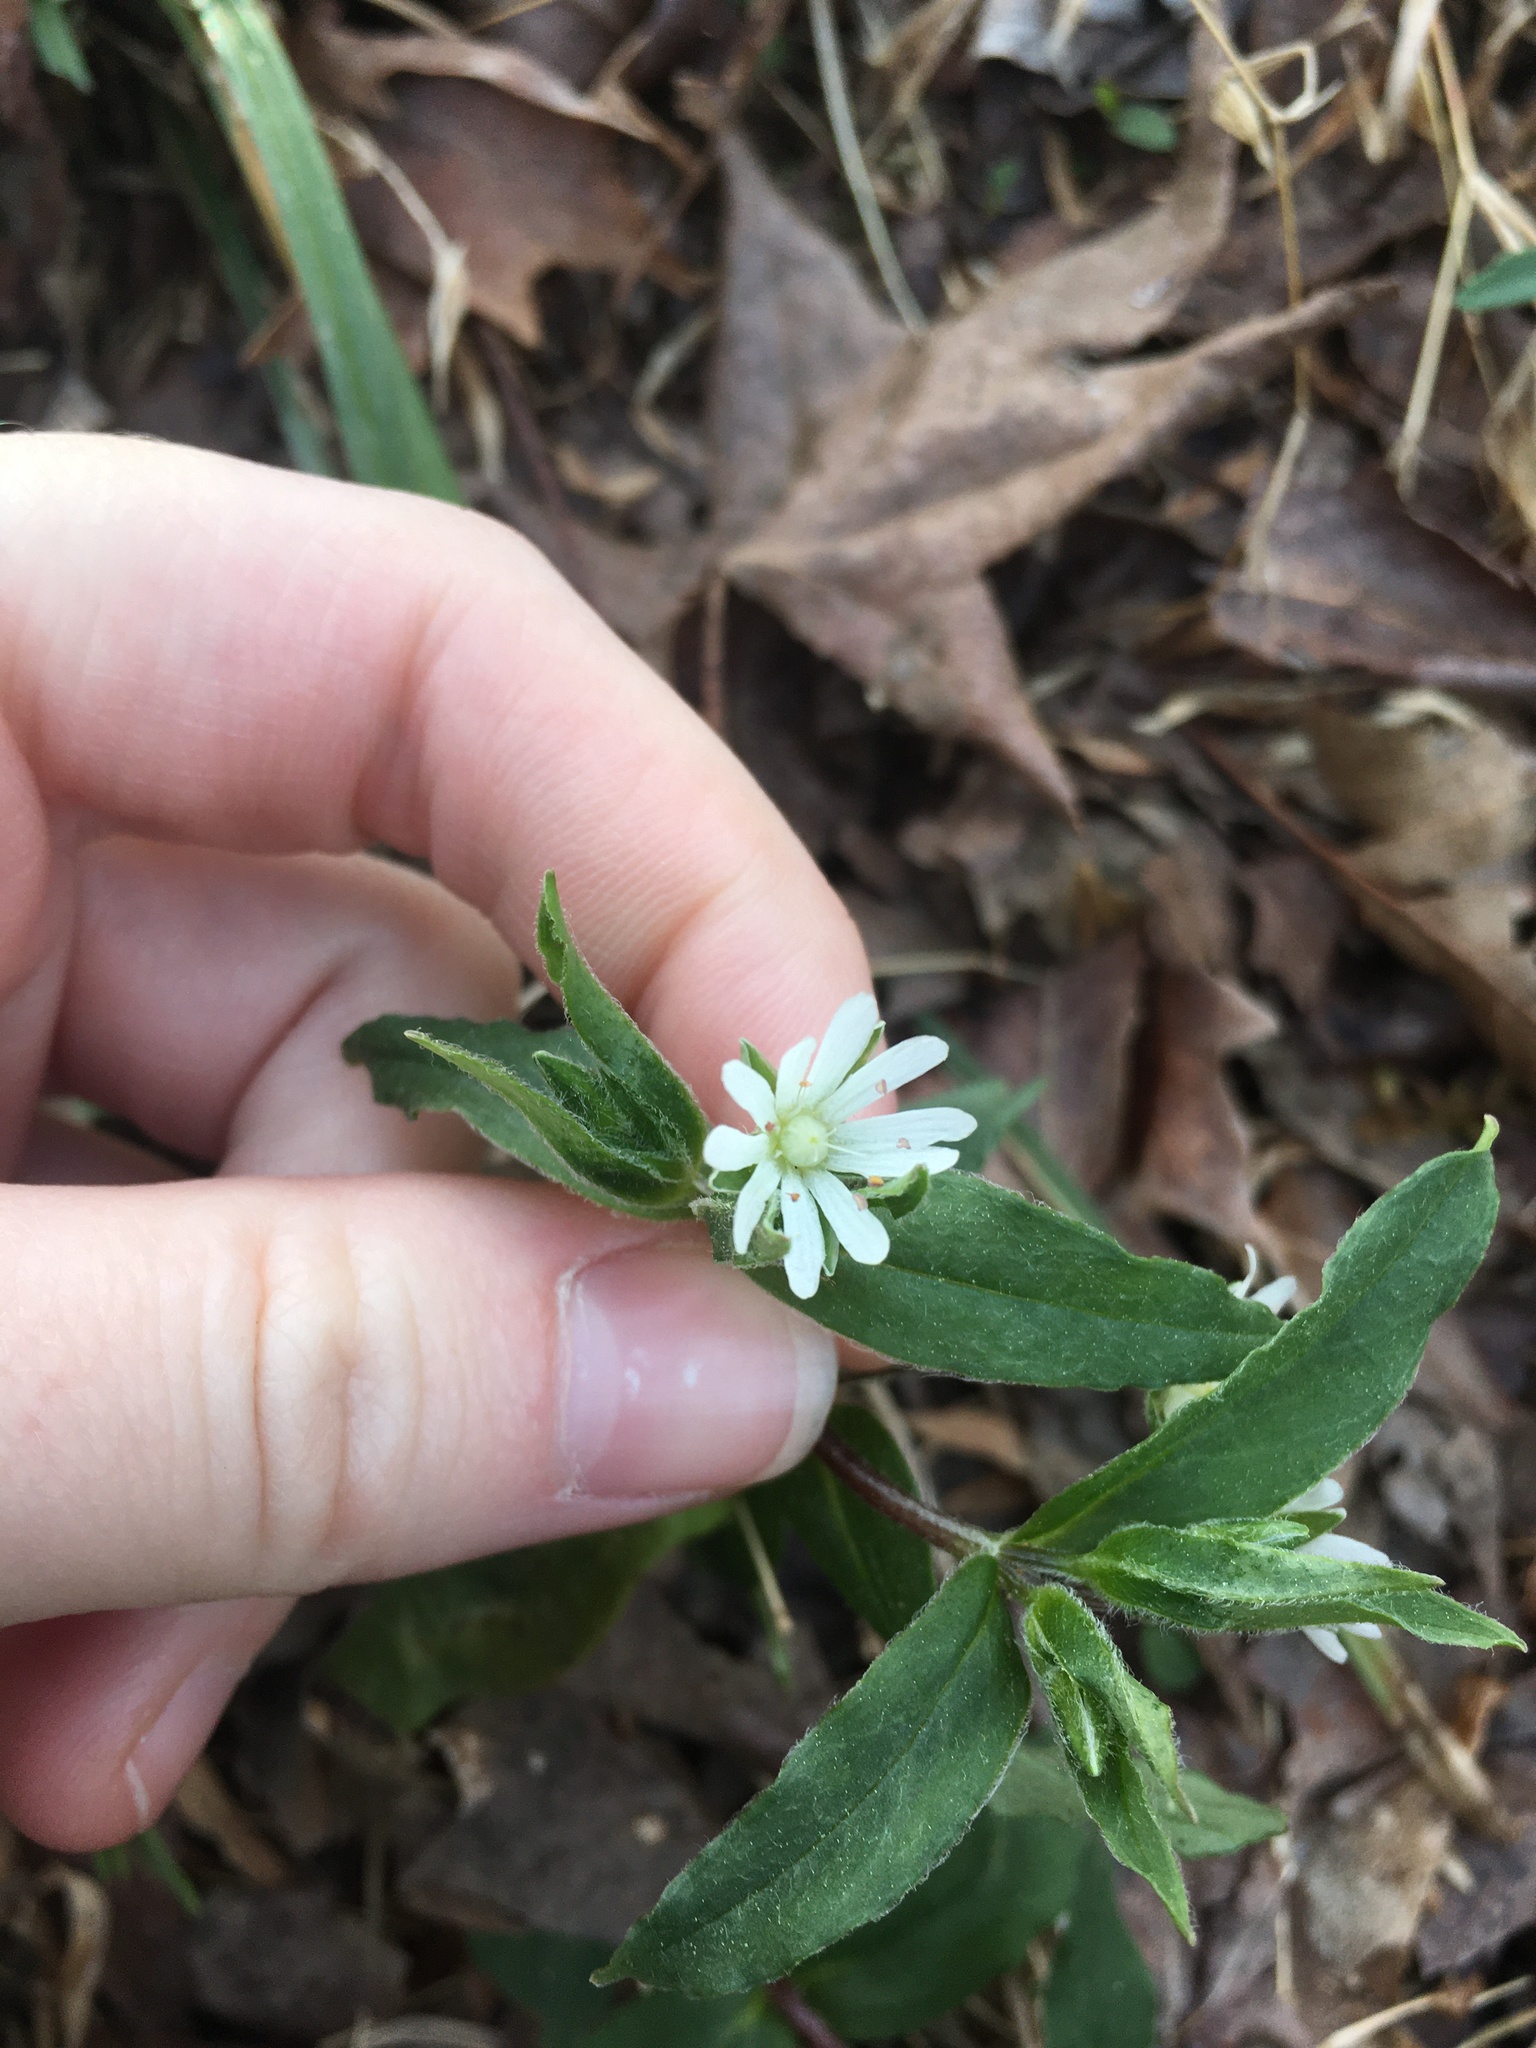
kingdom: Plantae
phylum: Tracheophyta
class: Magnoliopsida
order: Caryophyllales
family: Caryophyllaceae
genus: Stellaria
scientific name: Stellaria pubera
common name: Star chickweed
